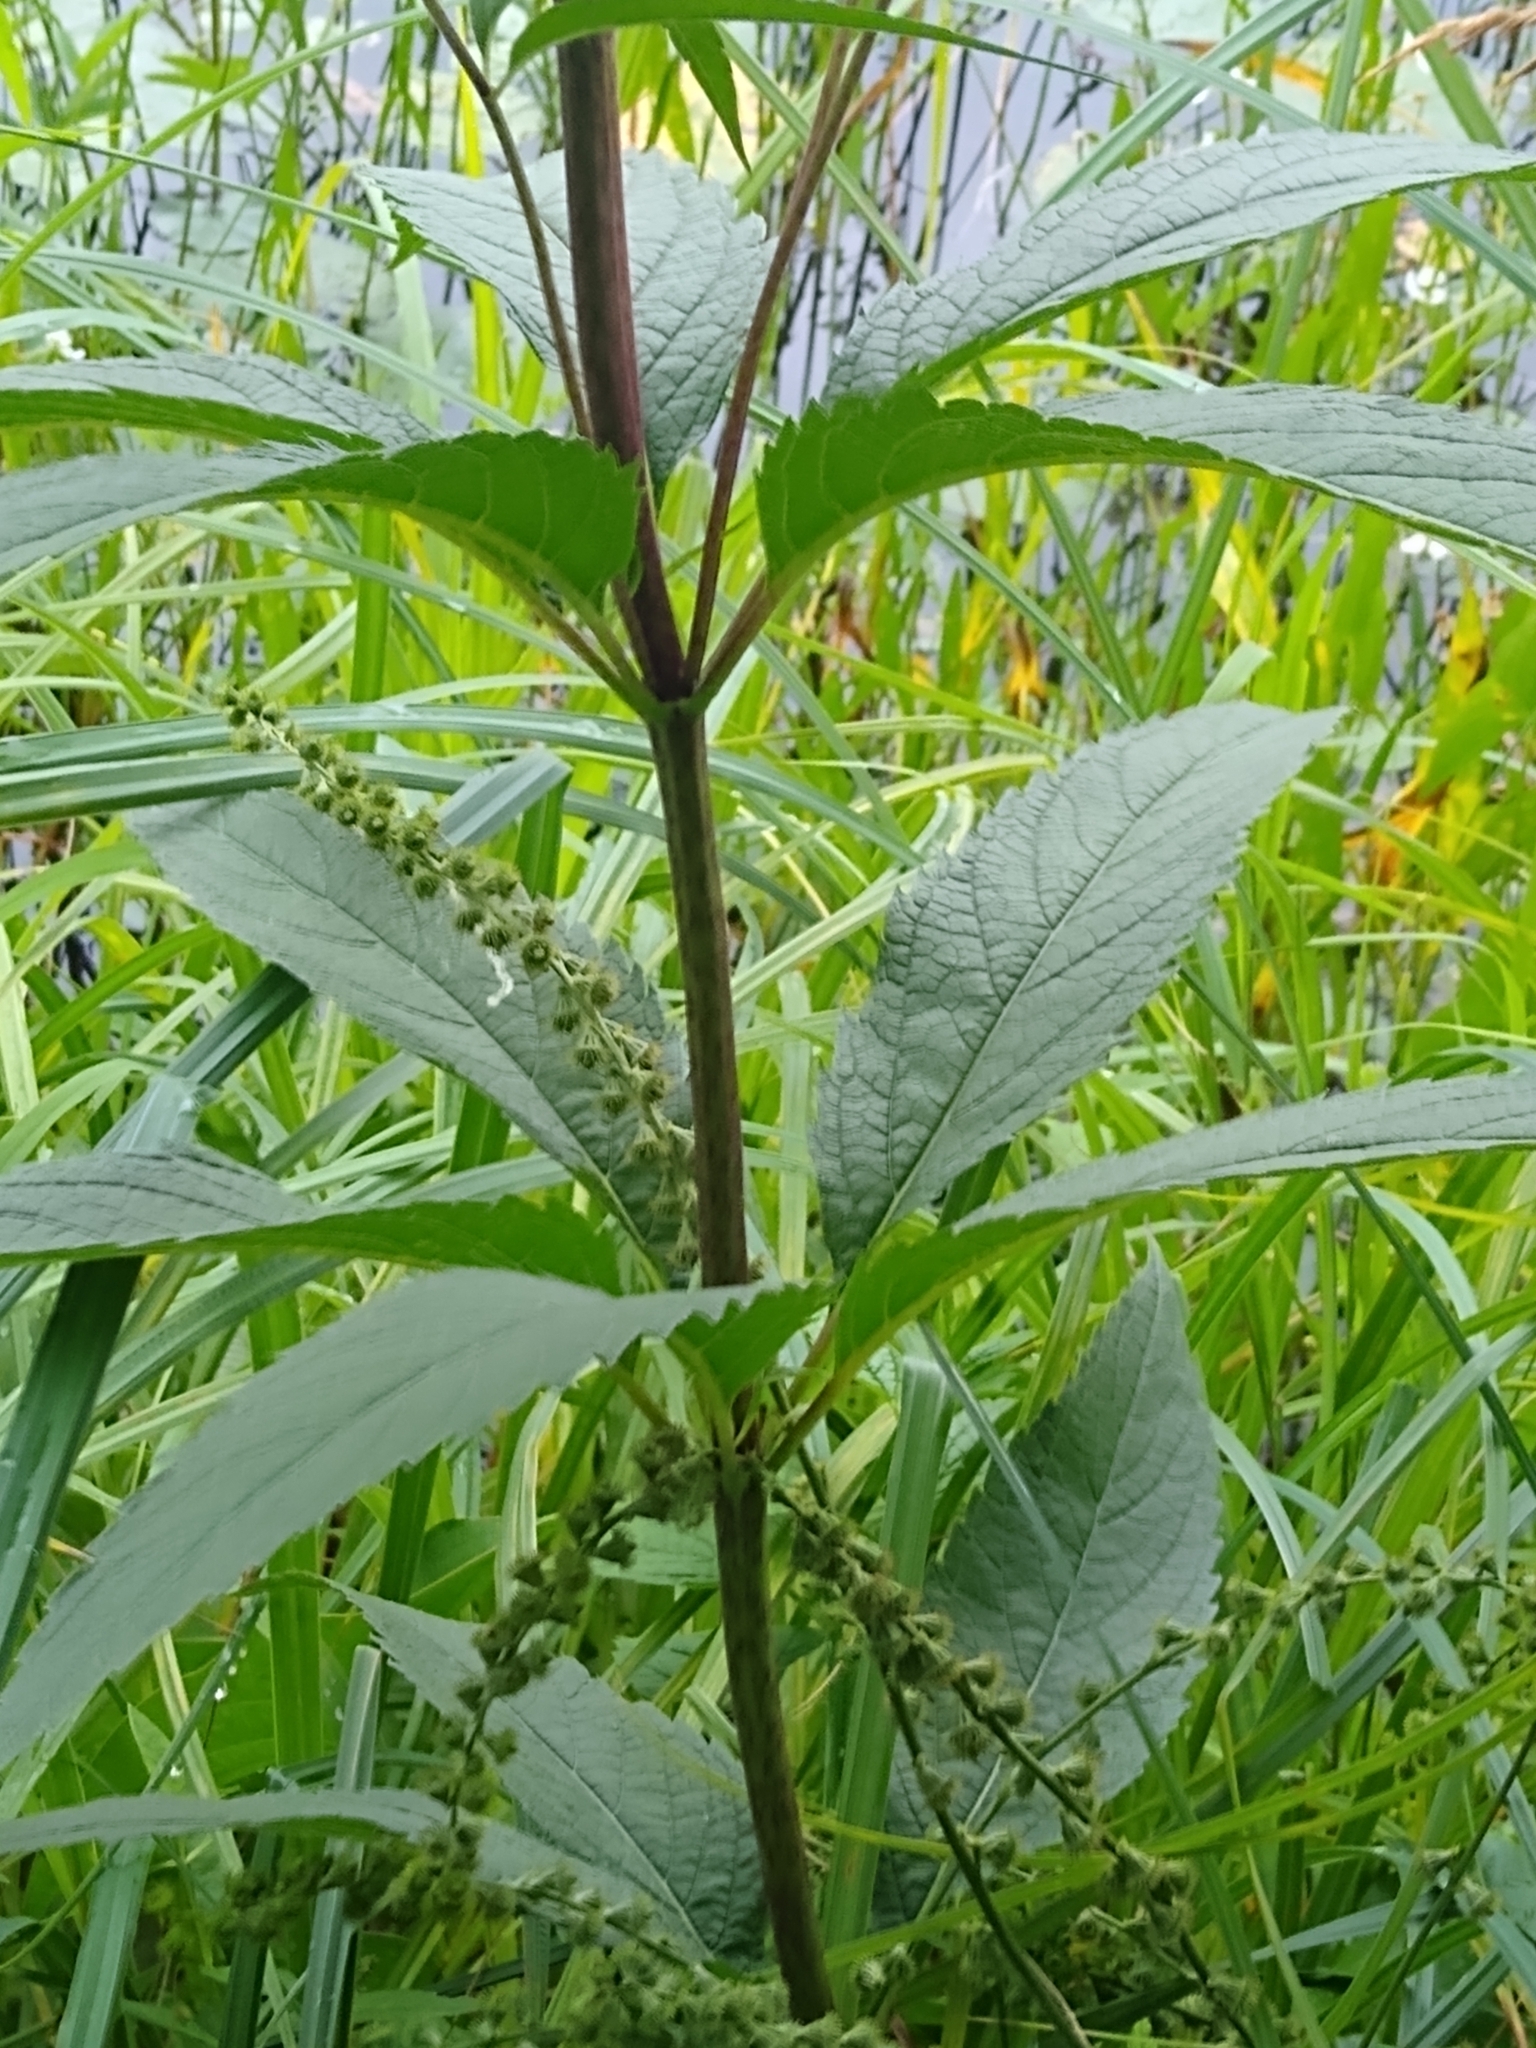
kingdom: Plantae
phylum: Tracheophyta
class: Magnoliopsida
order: Asterales
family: Asteraceae
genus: Eutrochium
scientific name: Eutrochium maculatum
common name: Spotted joe pye weed
